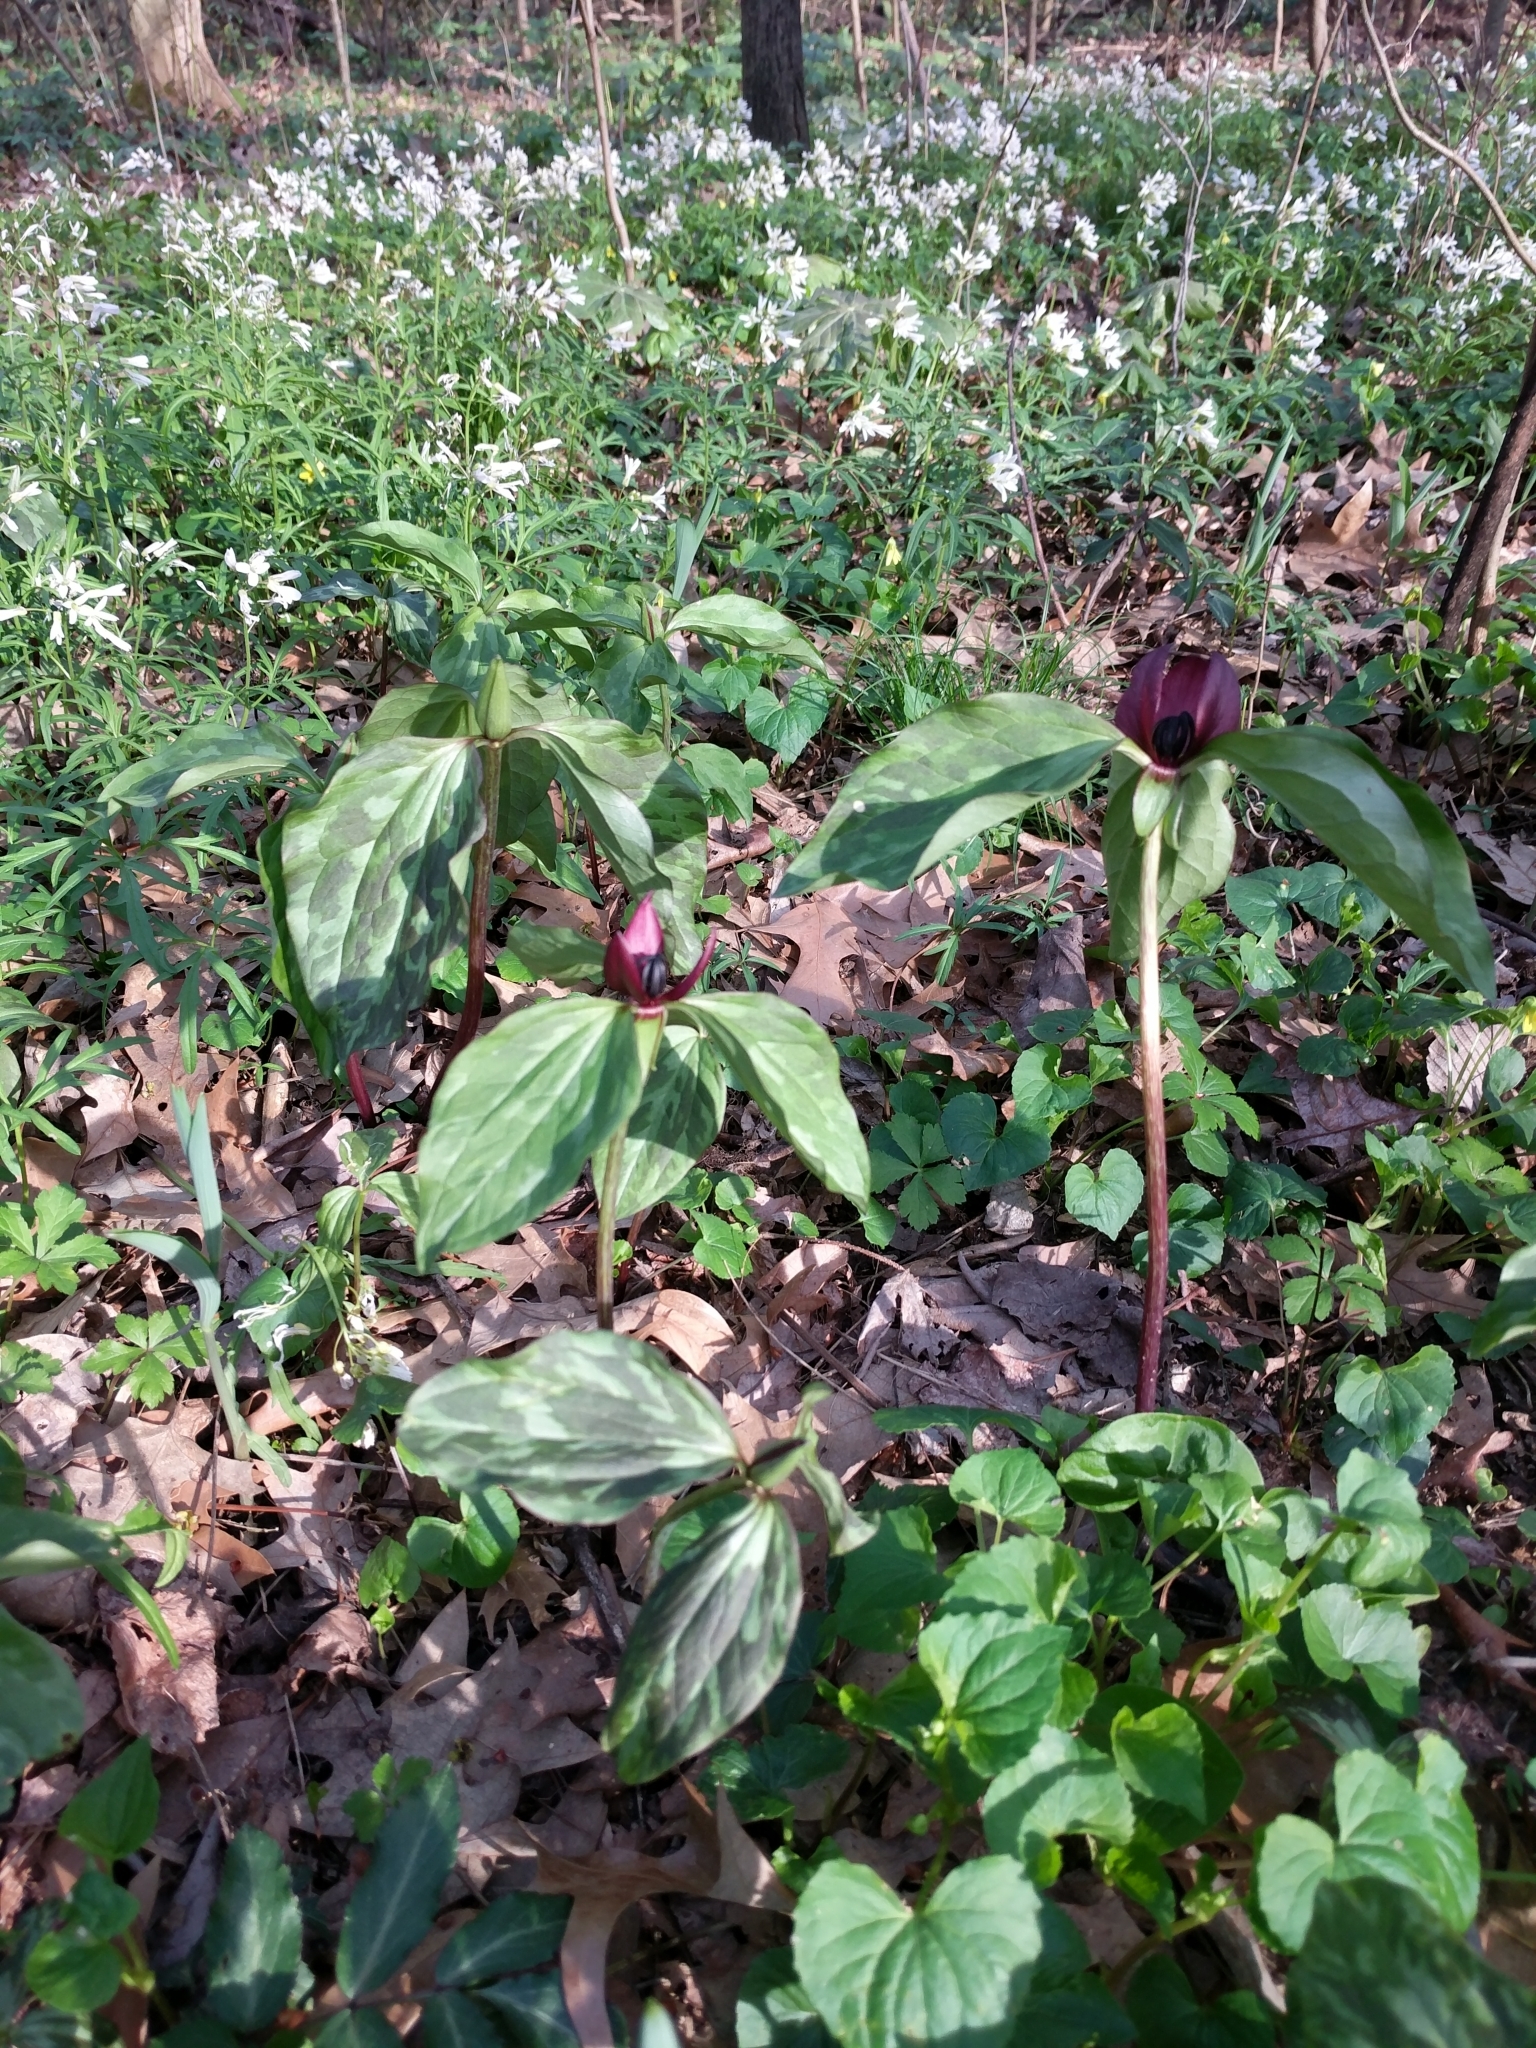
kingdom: Plantae
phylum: Tracheophyta
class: Liliopsida
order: Liliales
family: Melanthiaceae
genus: Trillium
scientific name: Trillium recurvatum
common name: Bloody butcher
